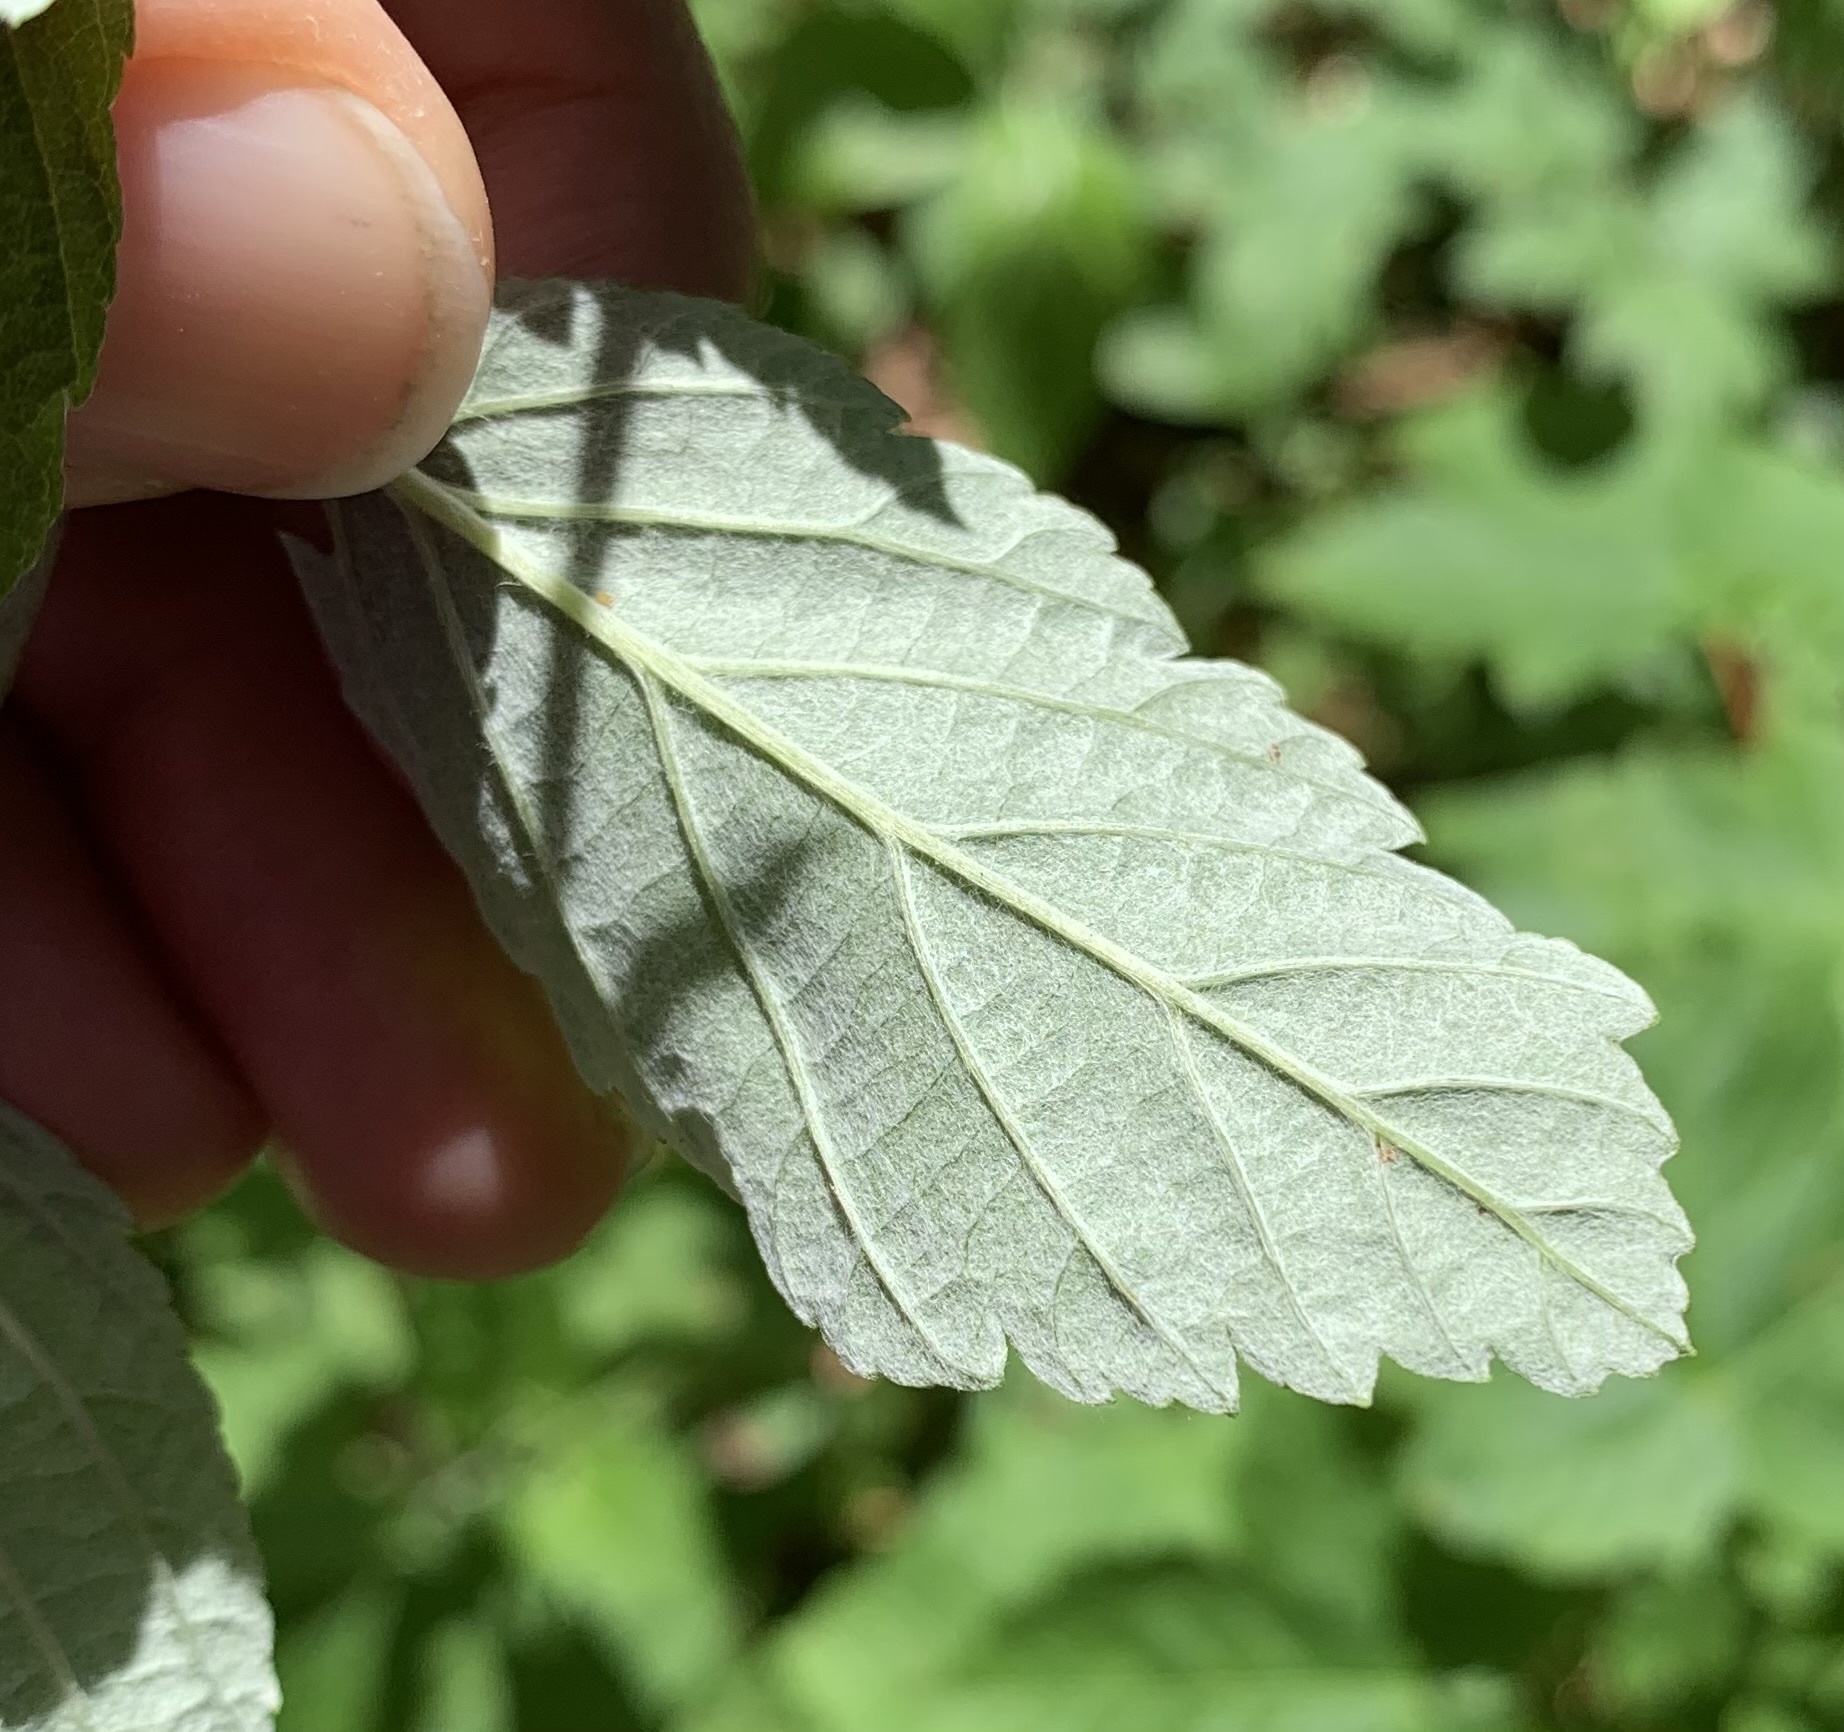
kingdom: Plantae
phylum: Tracheophyta
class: Magnoliopsida
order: Rosales
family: Rosaceae
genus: Aria
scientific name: Aria edulis
